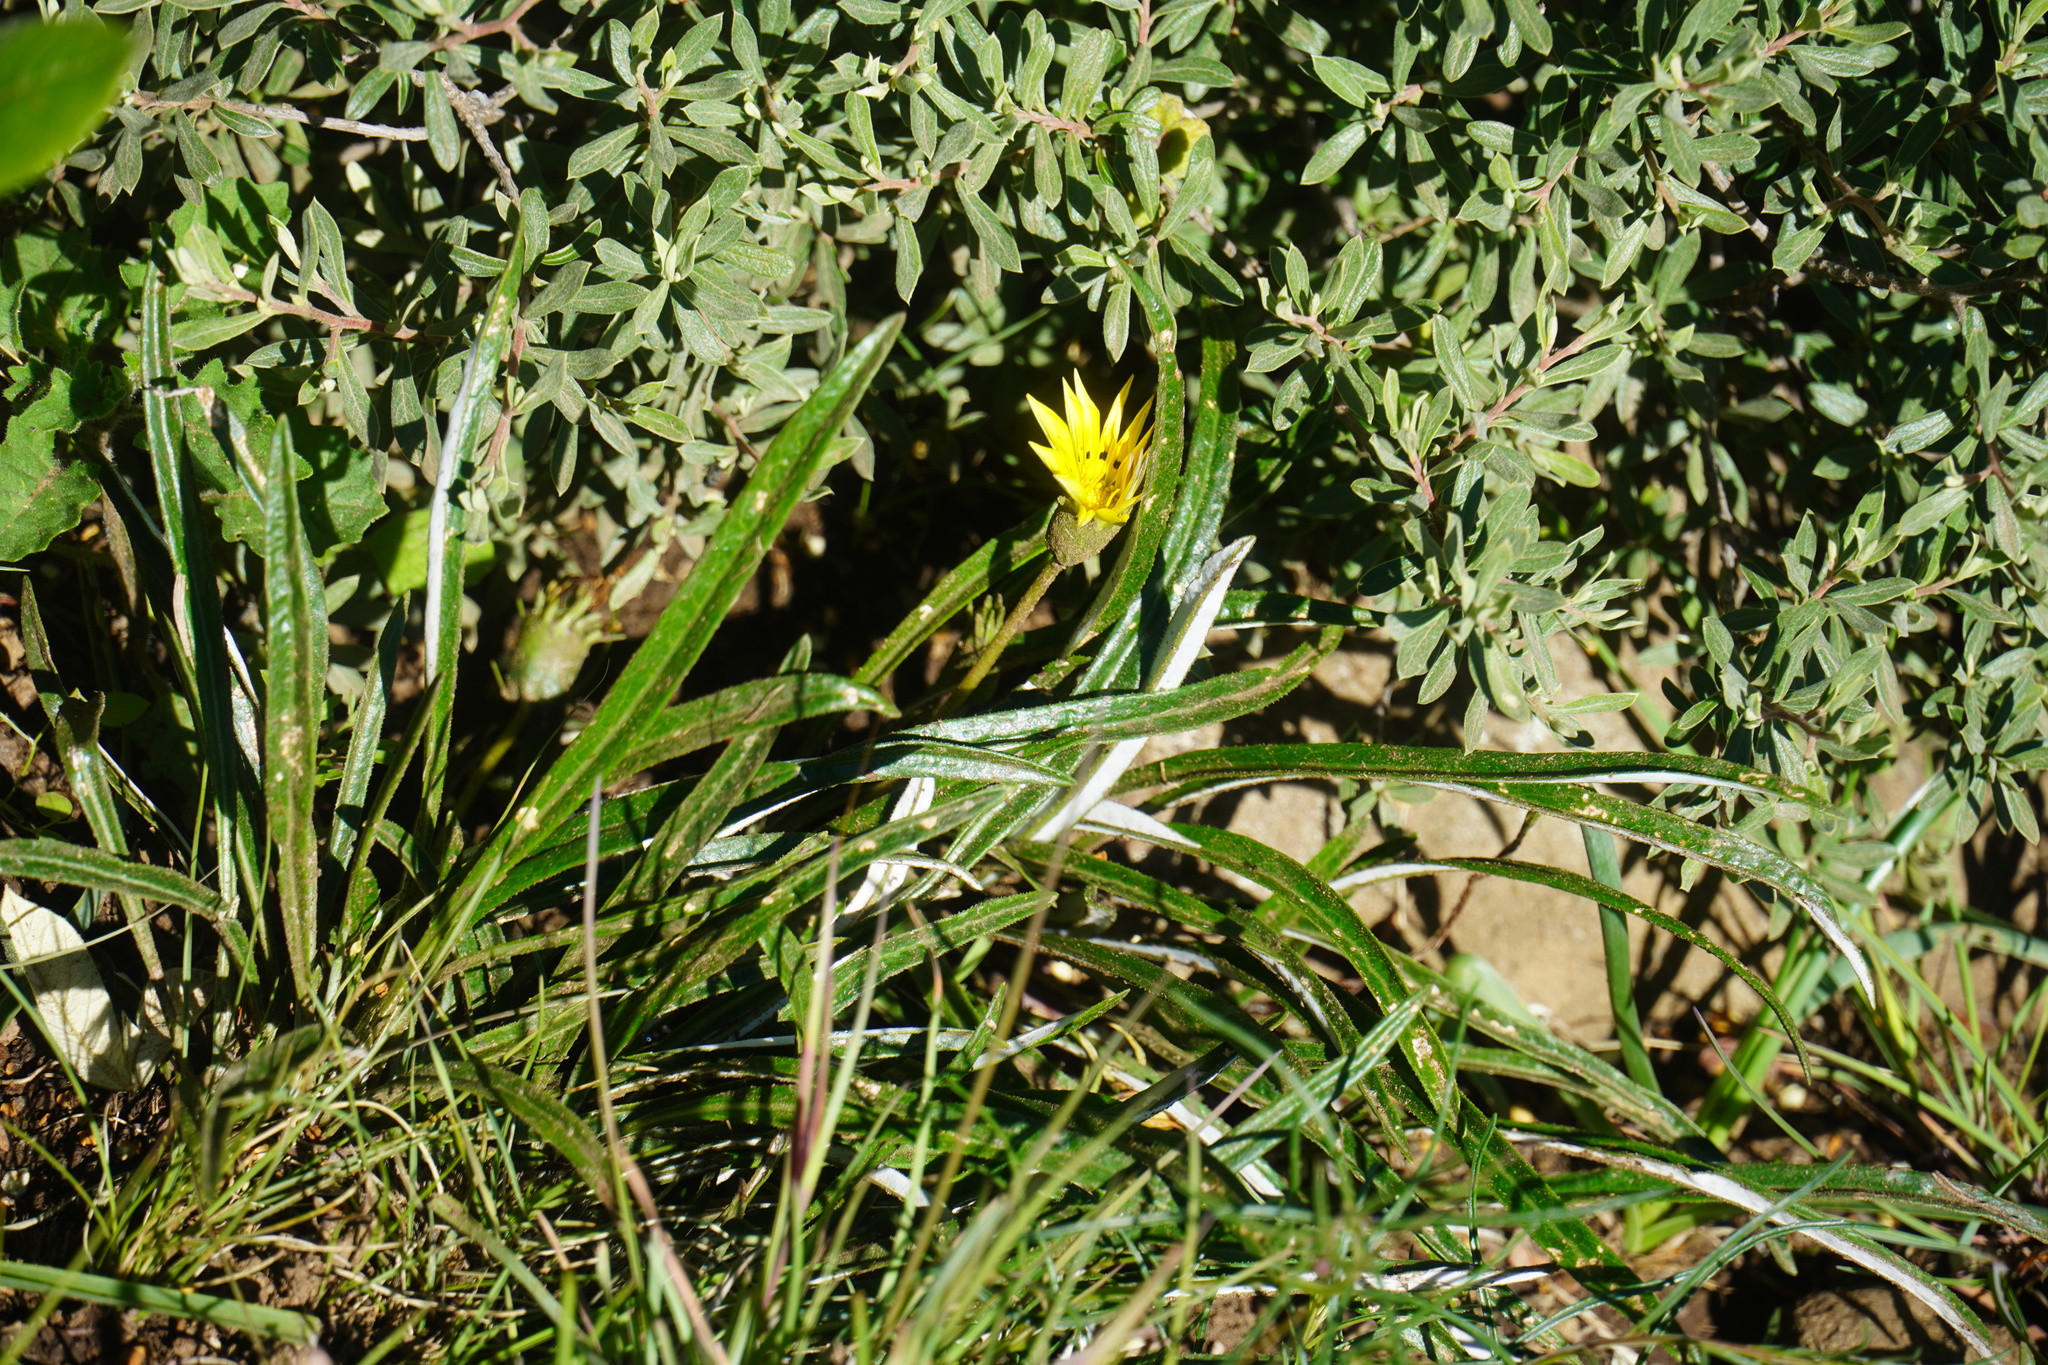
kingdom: Plantae
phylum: Tracheophyta
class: Magnoliopsida
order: Asterales
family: Asteraceae
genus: Gazania
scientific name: Gazania krebsiana
